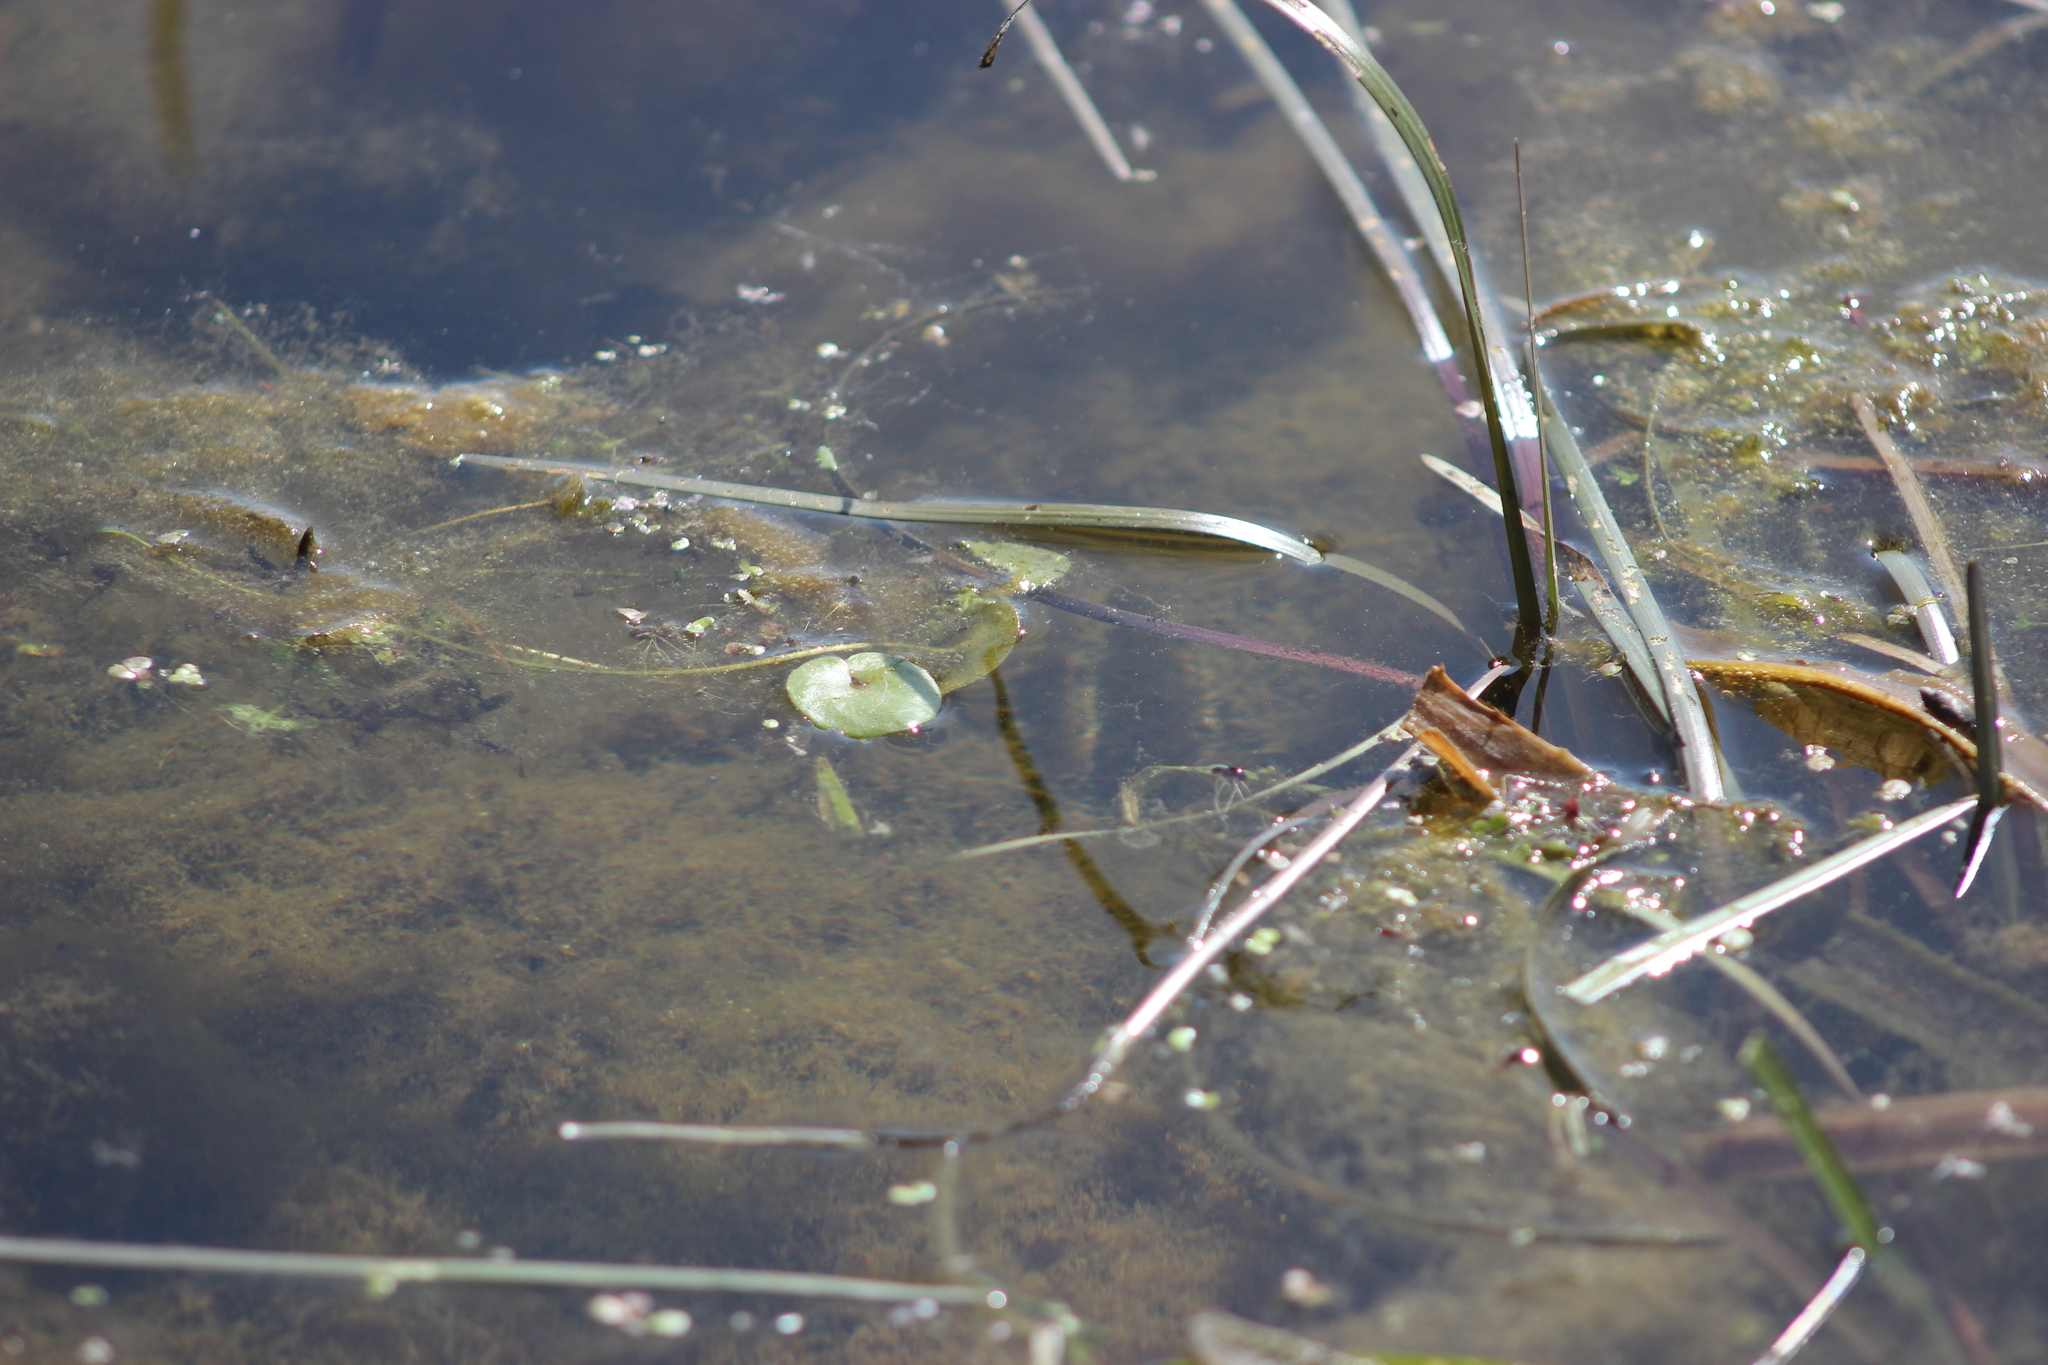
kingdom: Plantae
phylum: Tracheophyta
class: Liliopsida
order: Alismatales
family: Hydrocharitaceae
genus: Hydrocharis
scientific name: Hydrocharis morsus-ranae
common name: Frogbit
